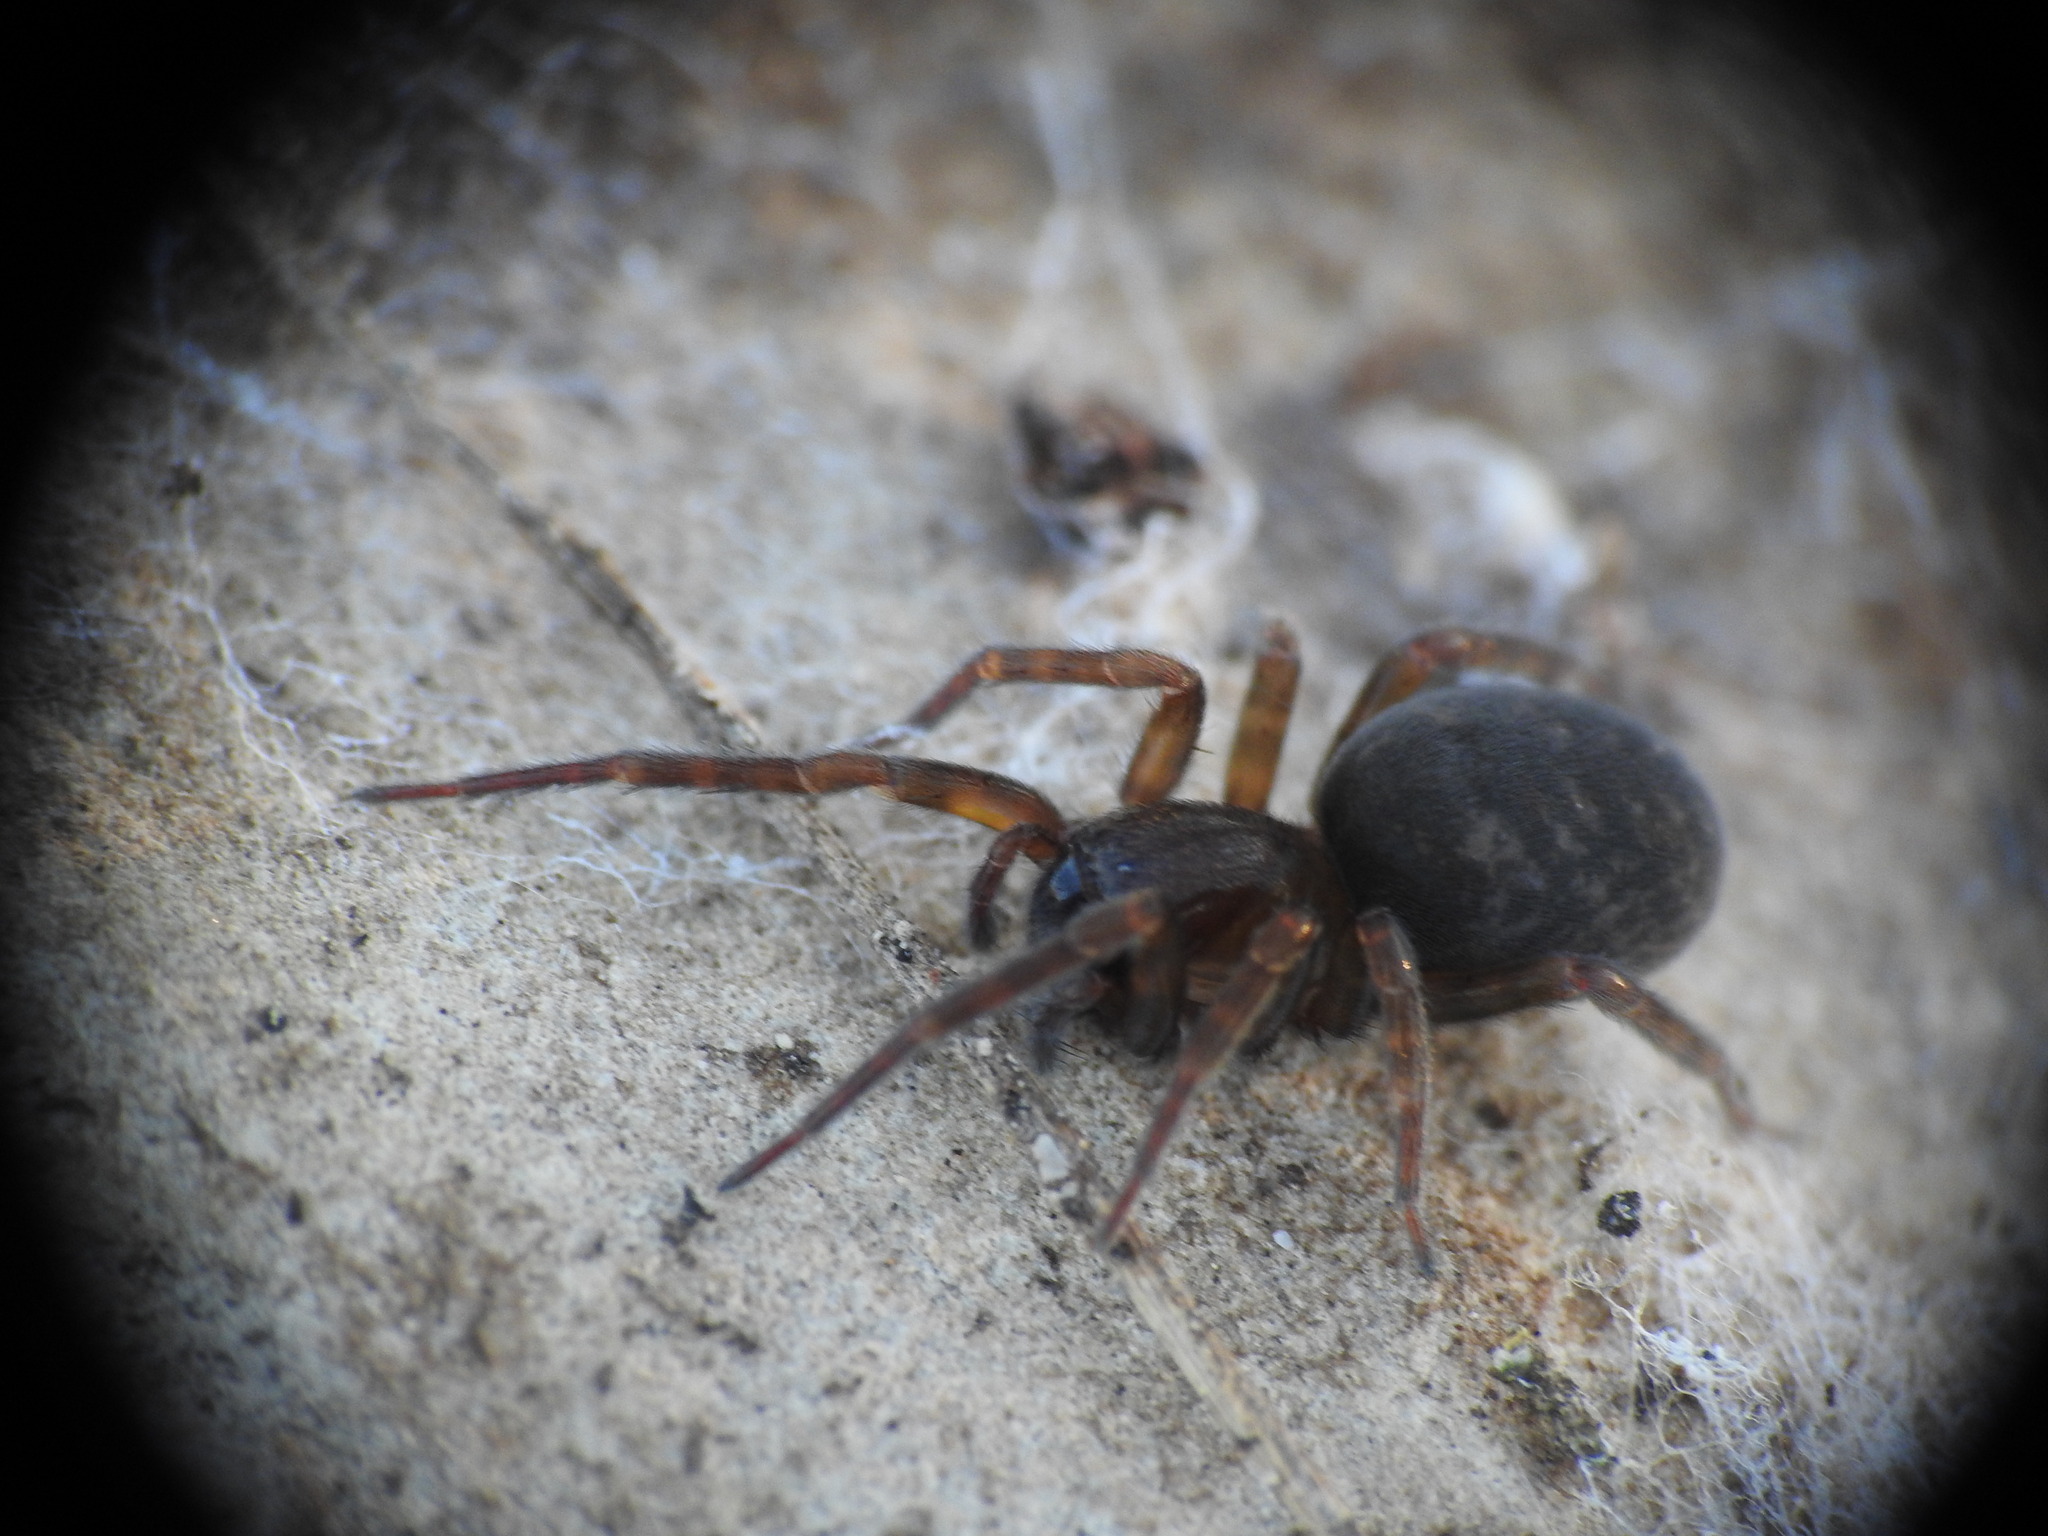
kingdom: Animalia
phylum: Arthropoda
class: Arachnida
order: Araneae
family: Amaurobiidae
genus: Amaurobius
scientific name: Amaurobius erberi
